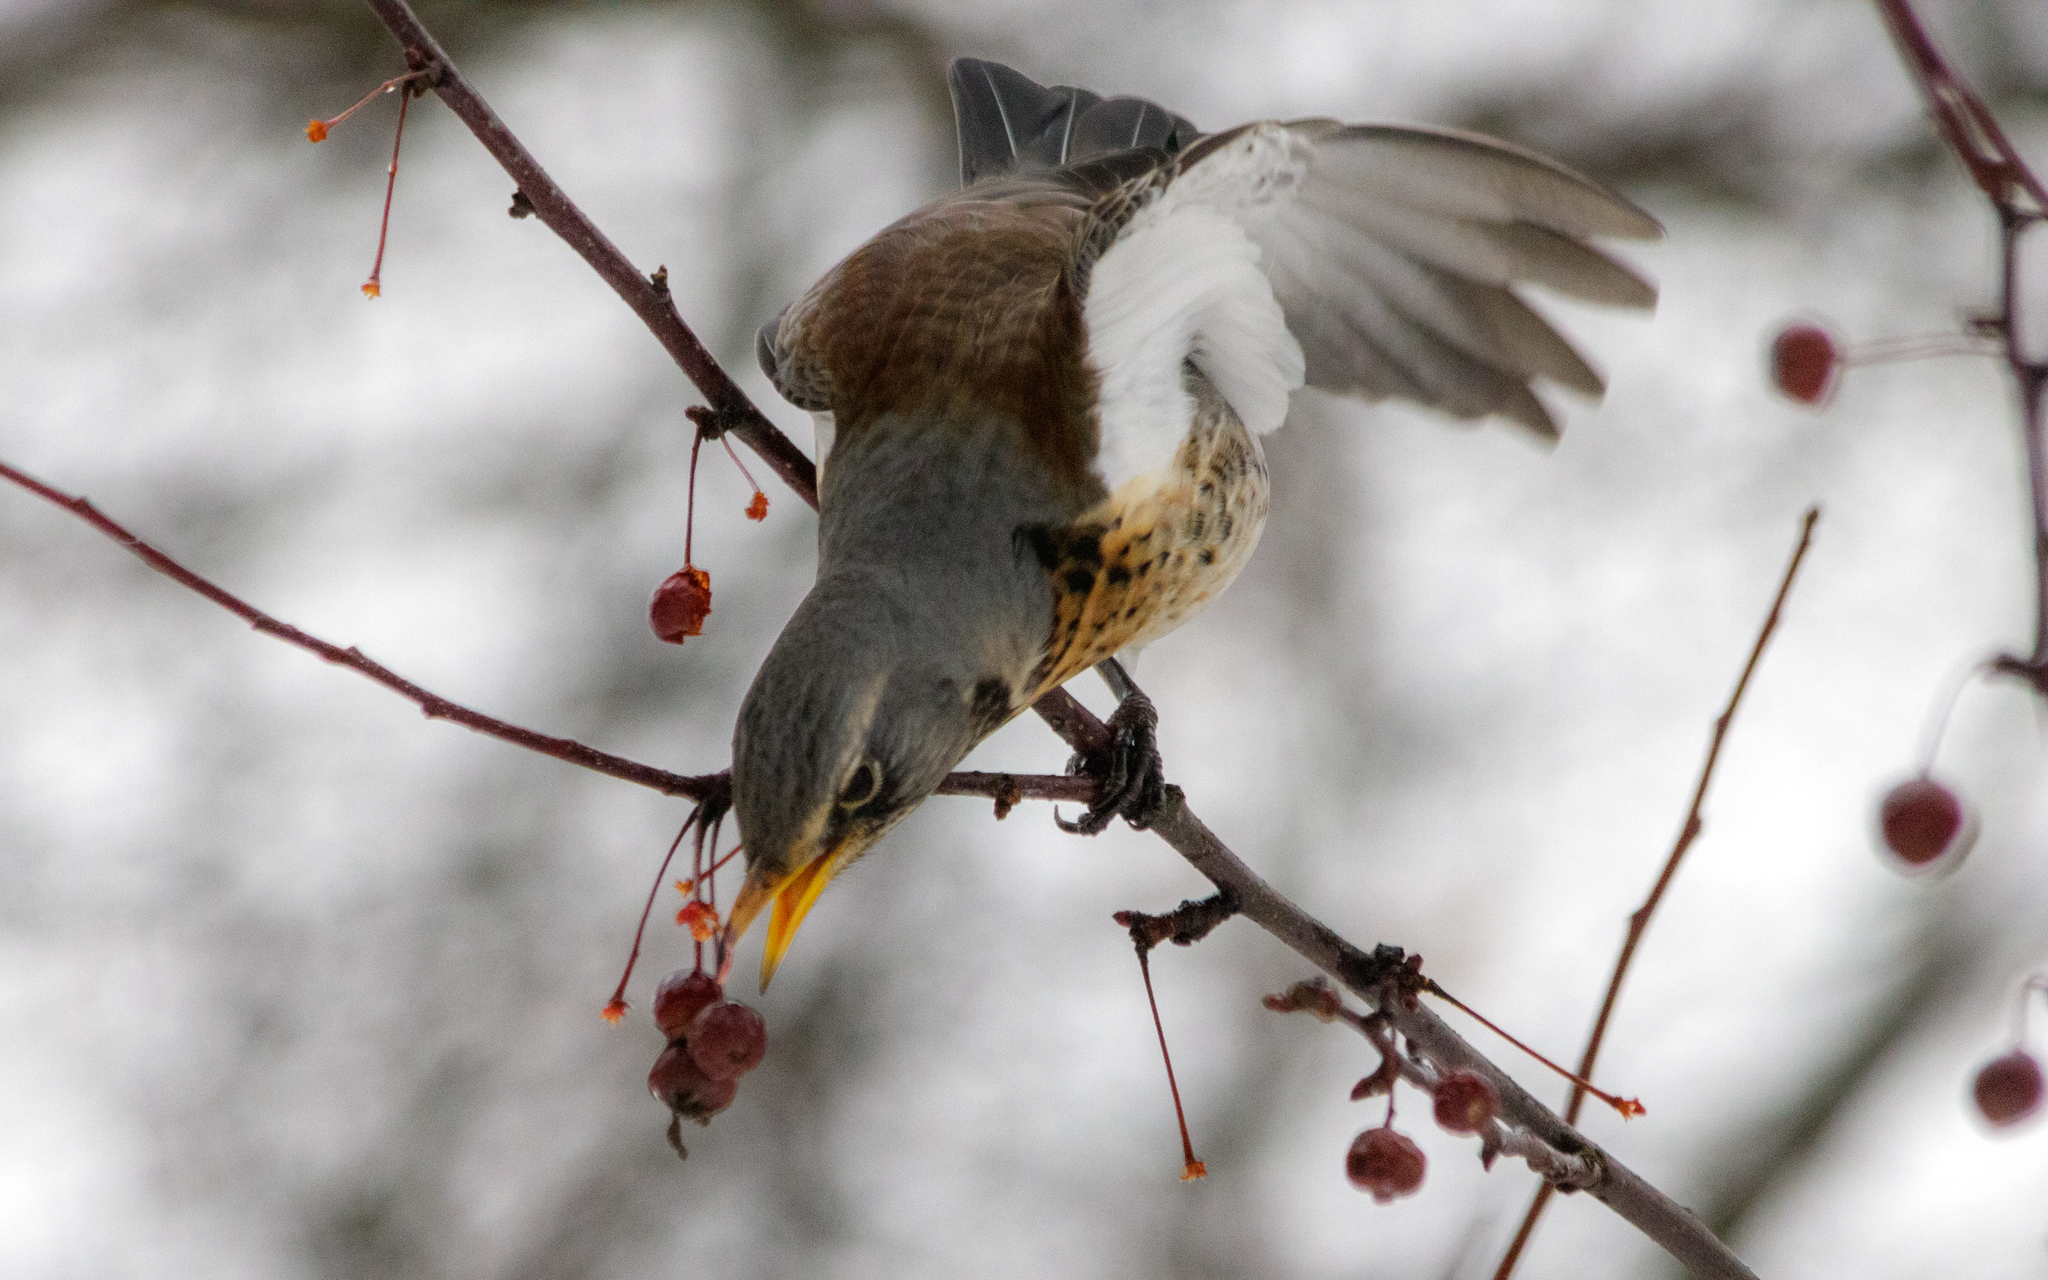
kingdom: Animalia
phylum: Chordata
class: Aves
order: Passeriformes
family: Turdidae
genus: Turdus
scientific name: Turdus pilaris
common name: Fieldfare
